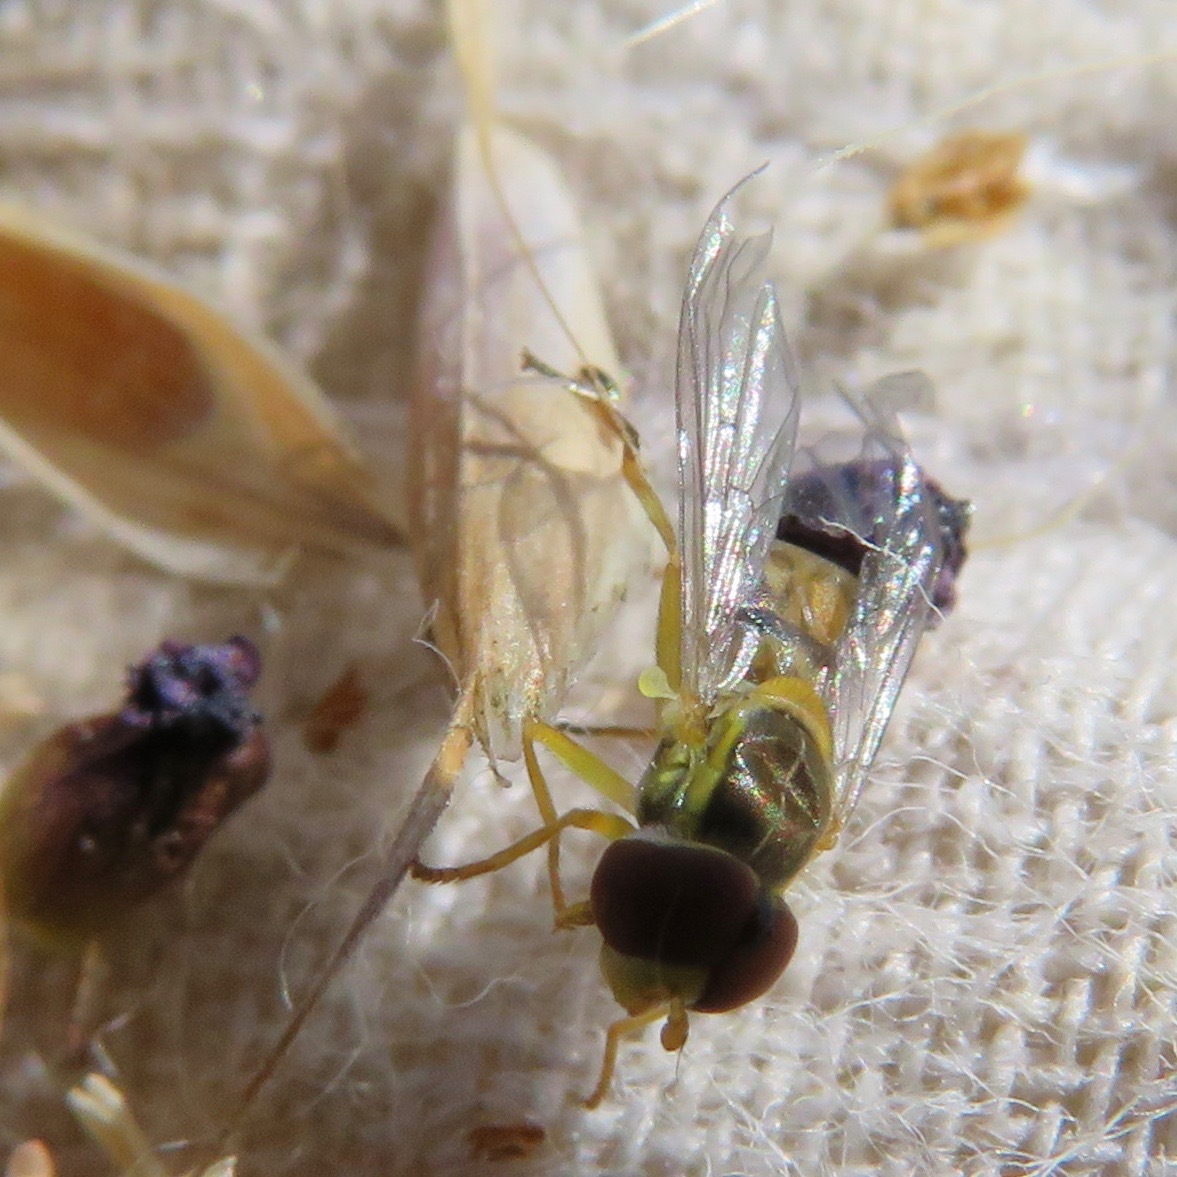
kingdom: Animalia
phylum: Arthropoda
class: Insecta
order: Diptera
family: Syrphidae
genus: Toxomerus
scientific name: Toxomerus marginatus
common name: Syrphid fly
